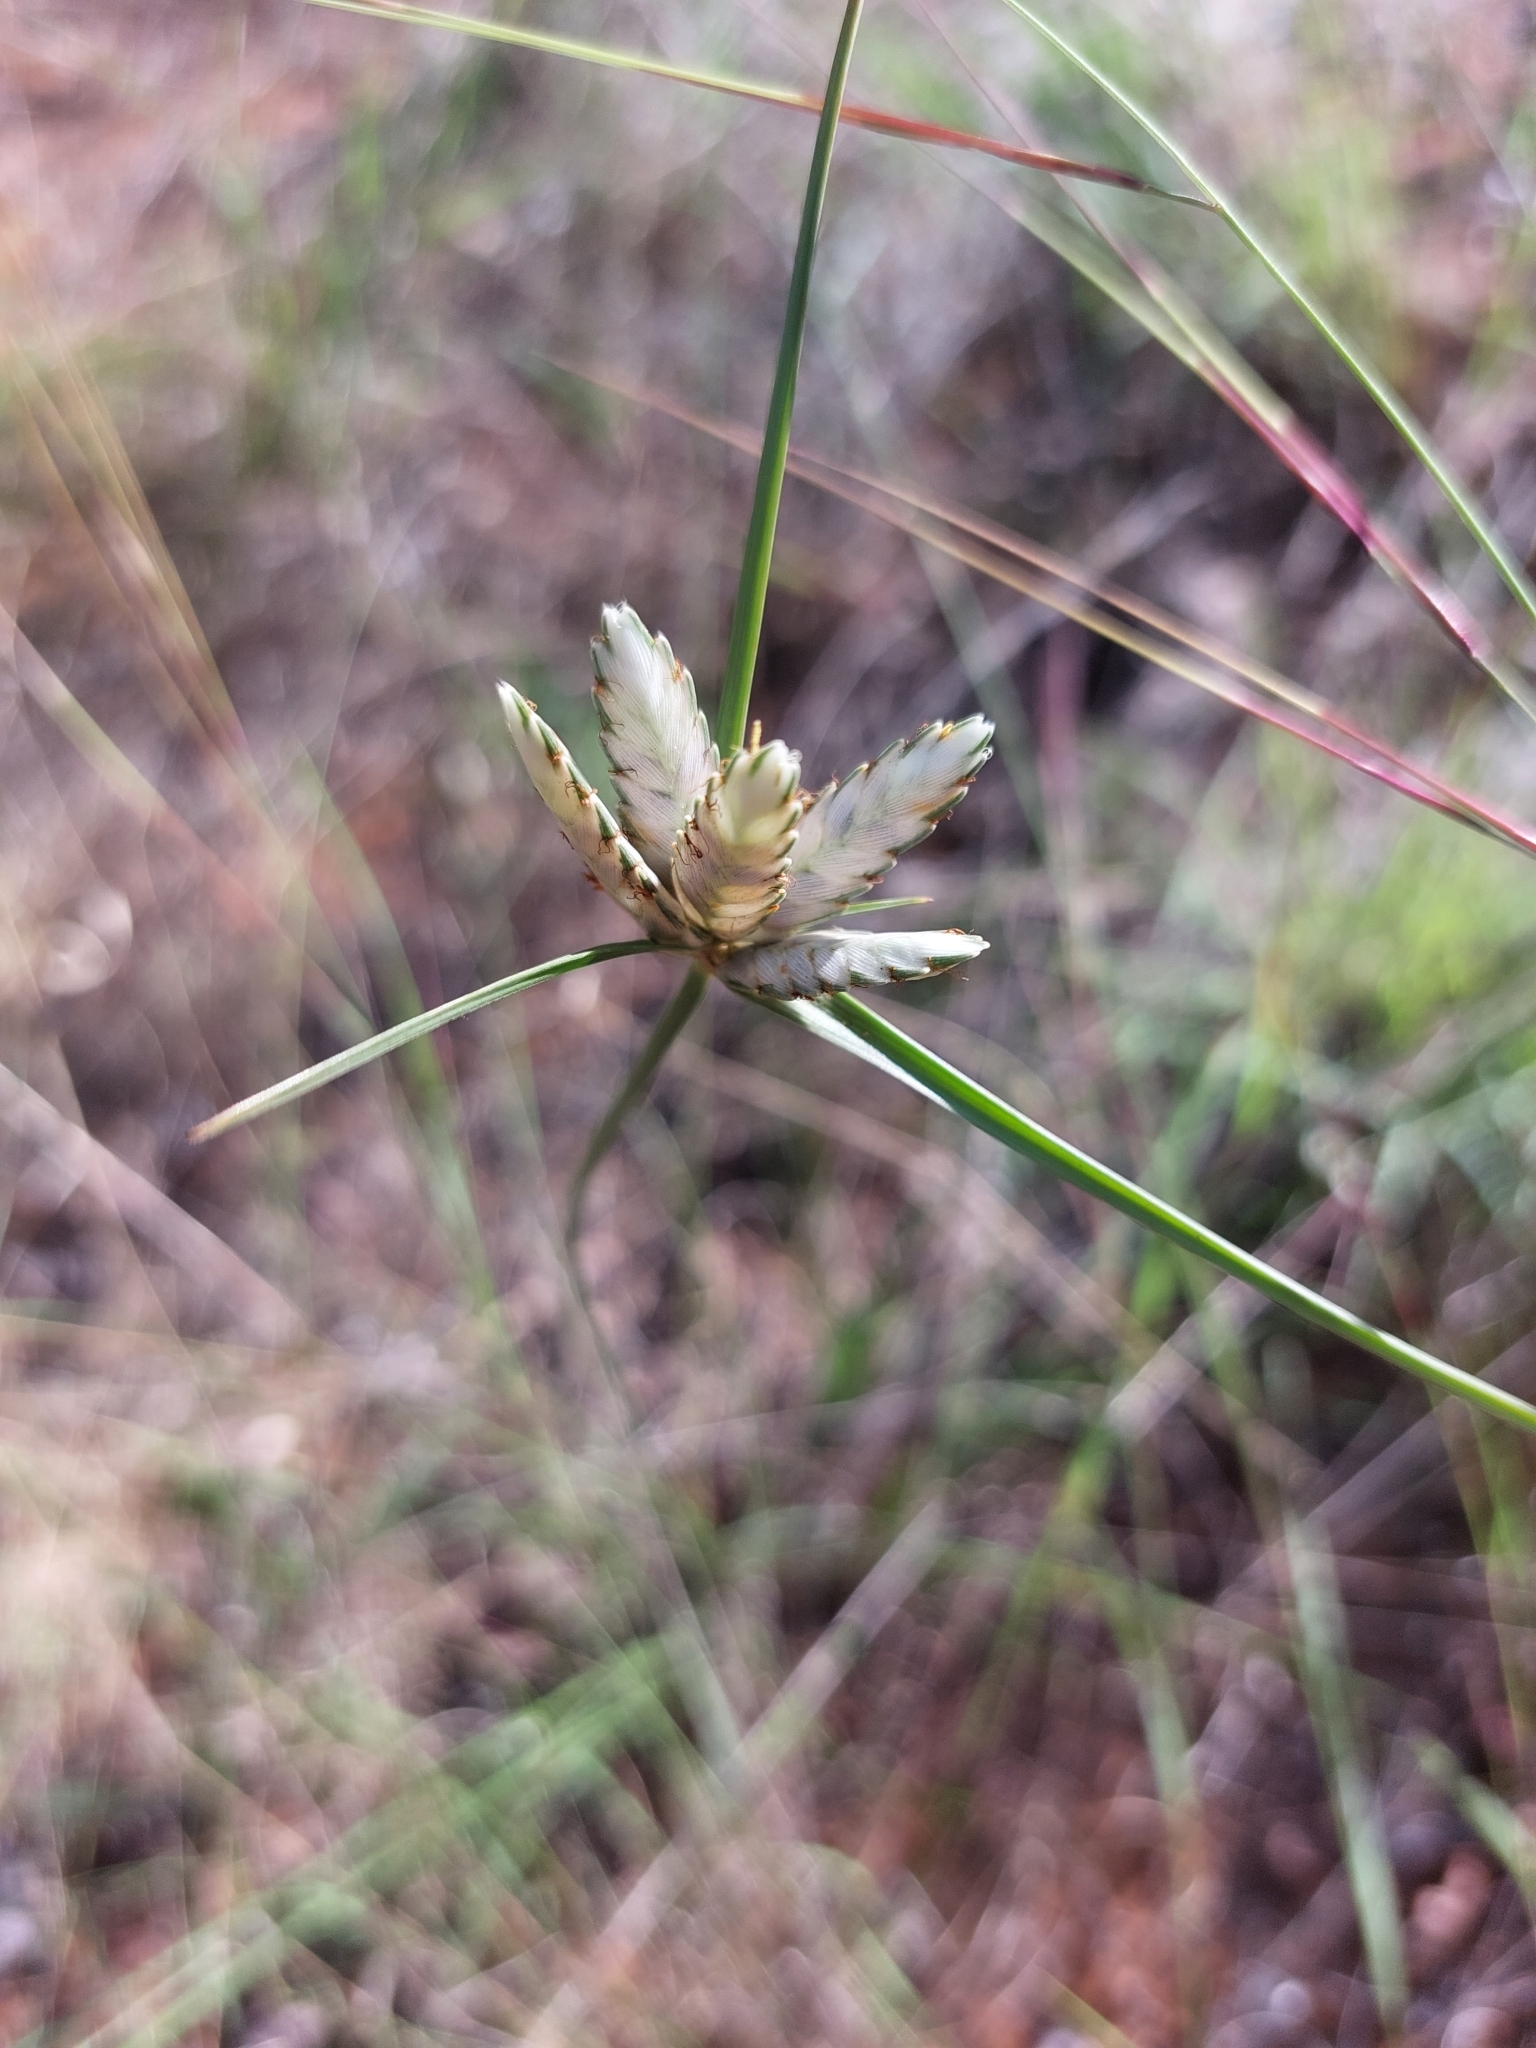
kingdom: Plantae
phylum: Tracheophyta
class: Liliopsida
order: Poales
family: Cyperaceae
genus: Cyperus
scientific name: Cyperus margaritaceus
